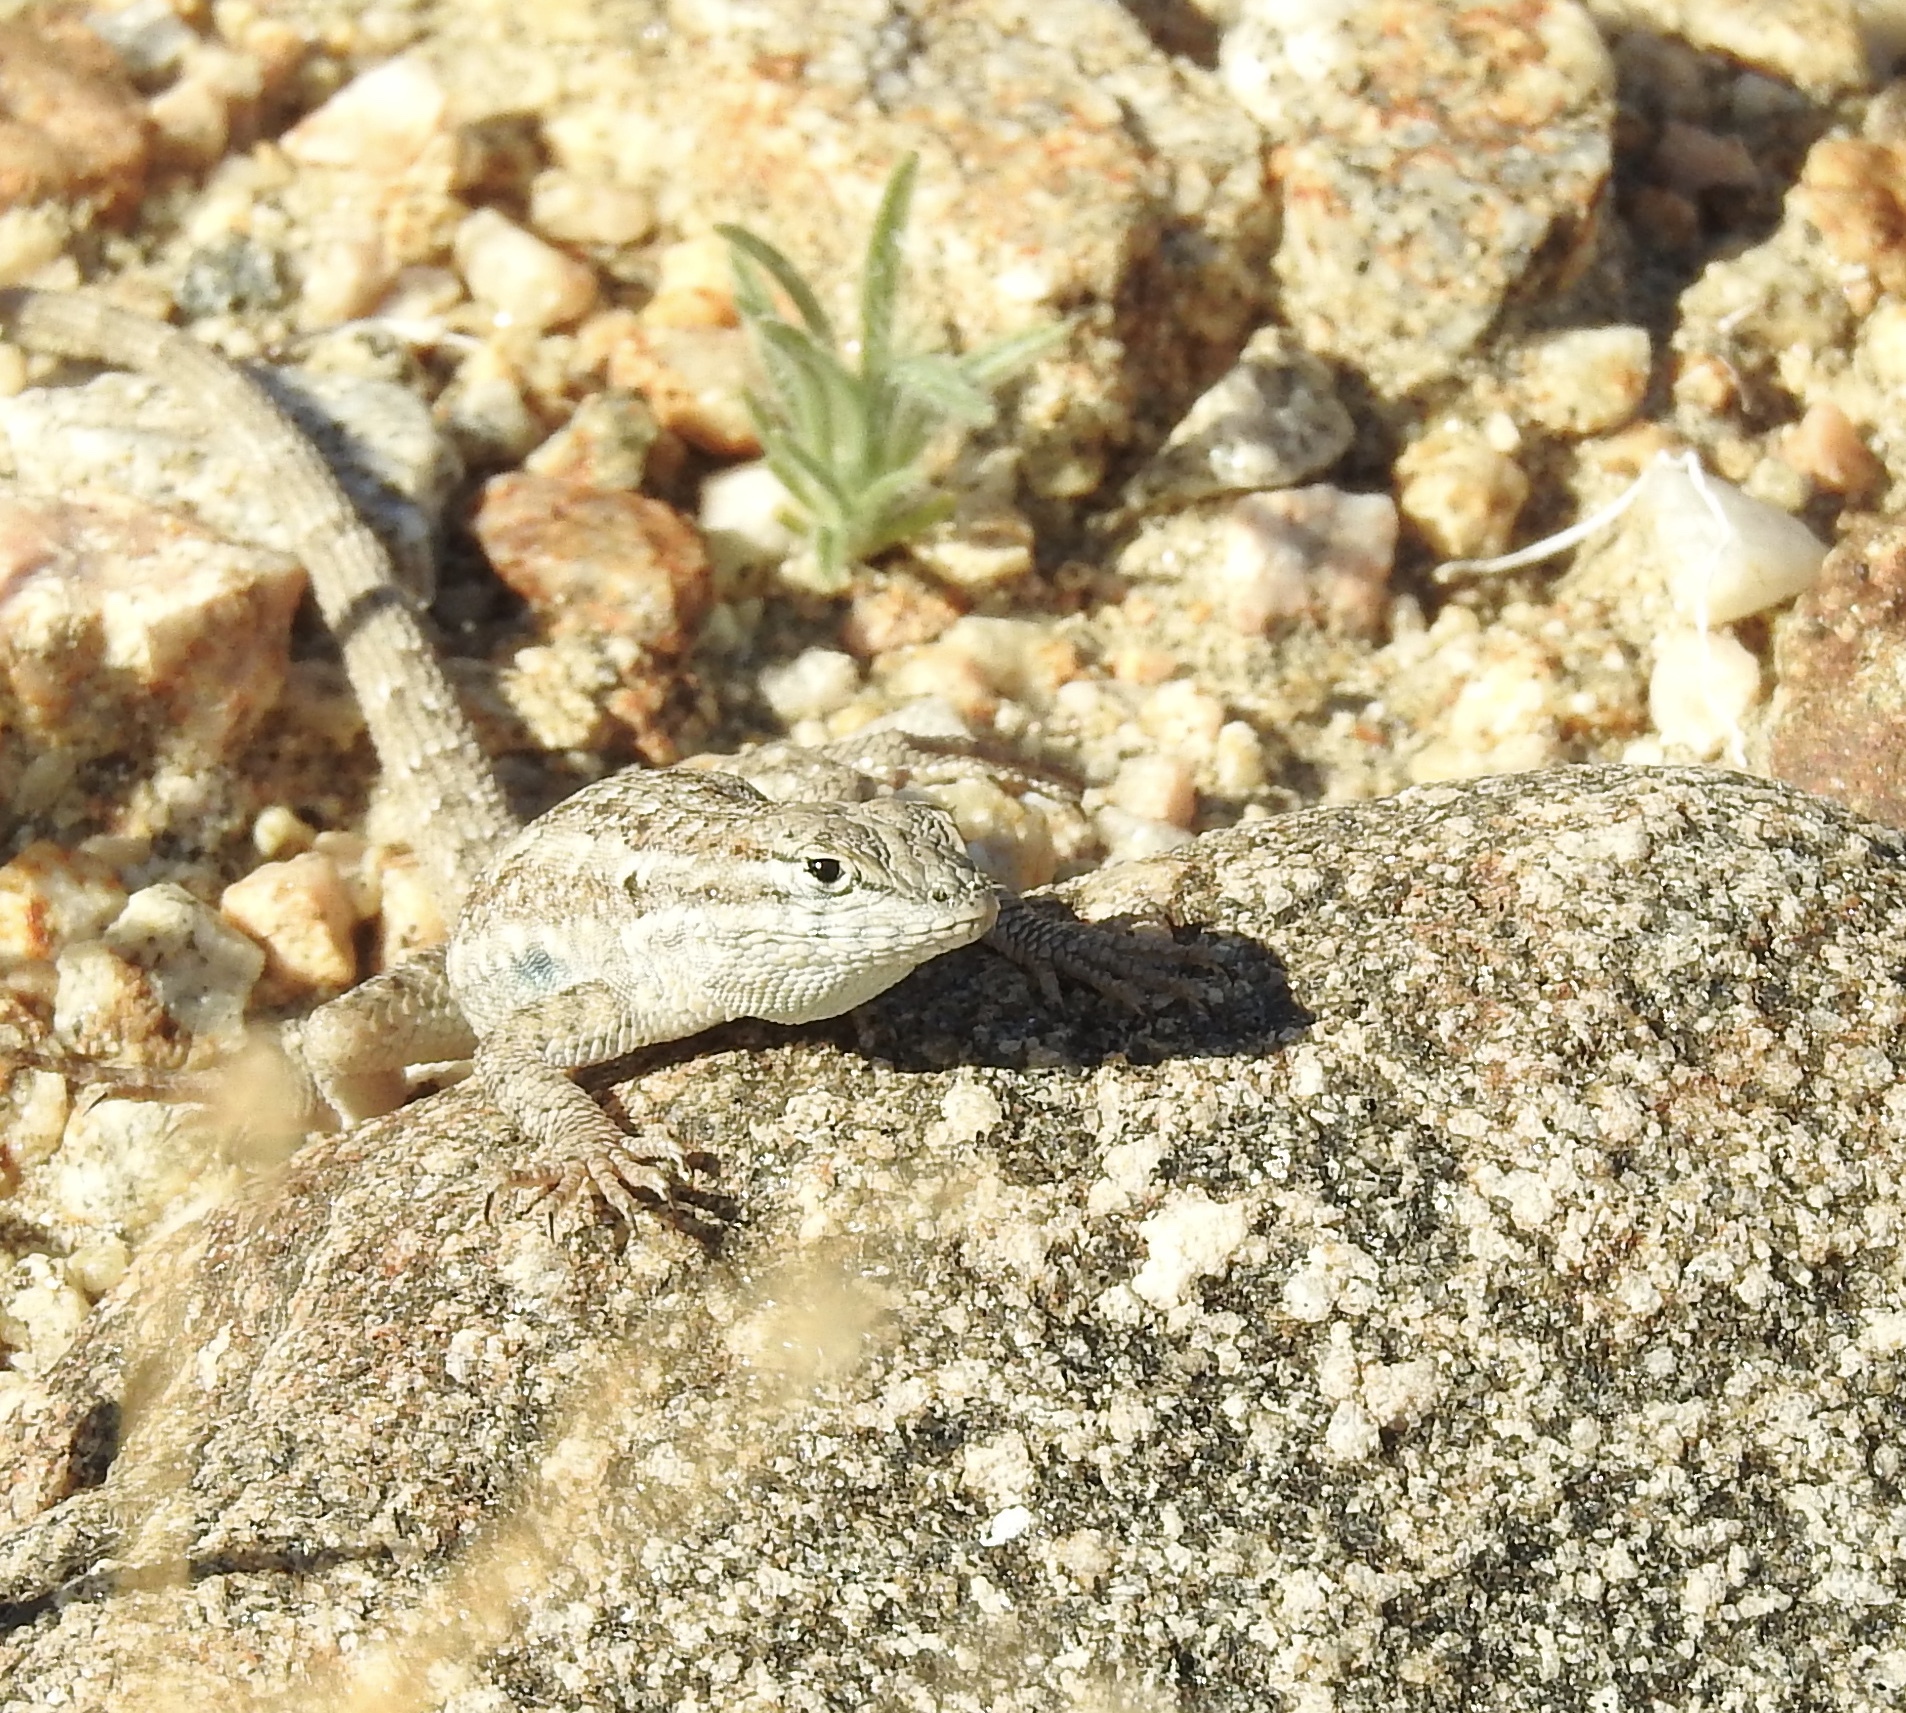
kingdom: Animalia
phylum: Chordata
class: Squamata
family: Phrynosomatidae
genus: Uta
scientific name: Uta stansburiana
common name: Side-blotched lizard
